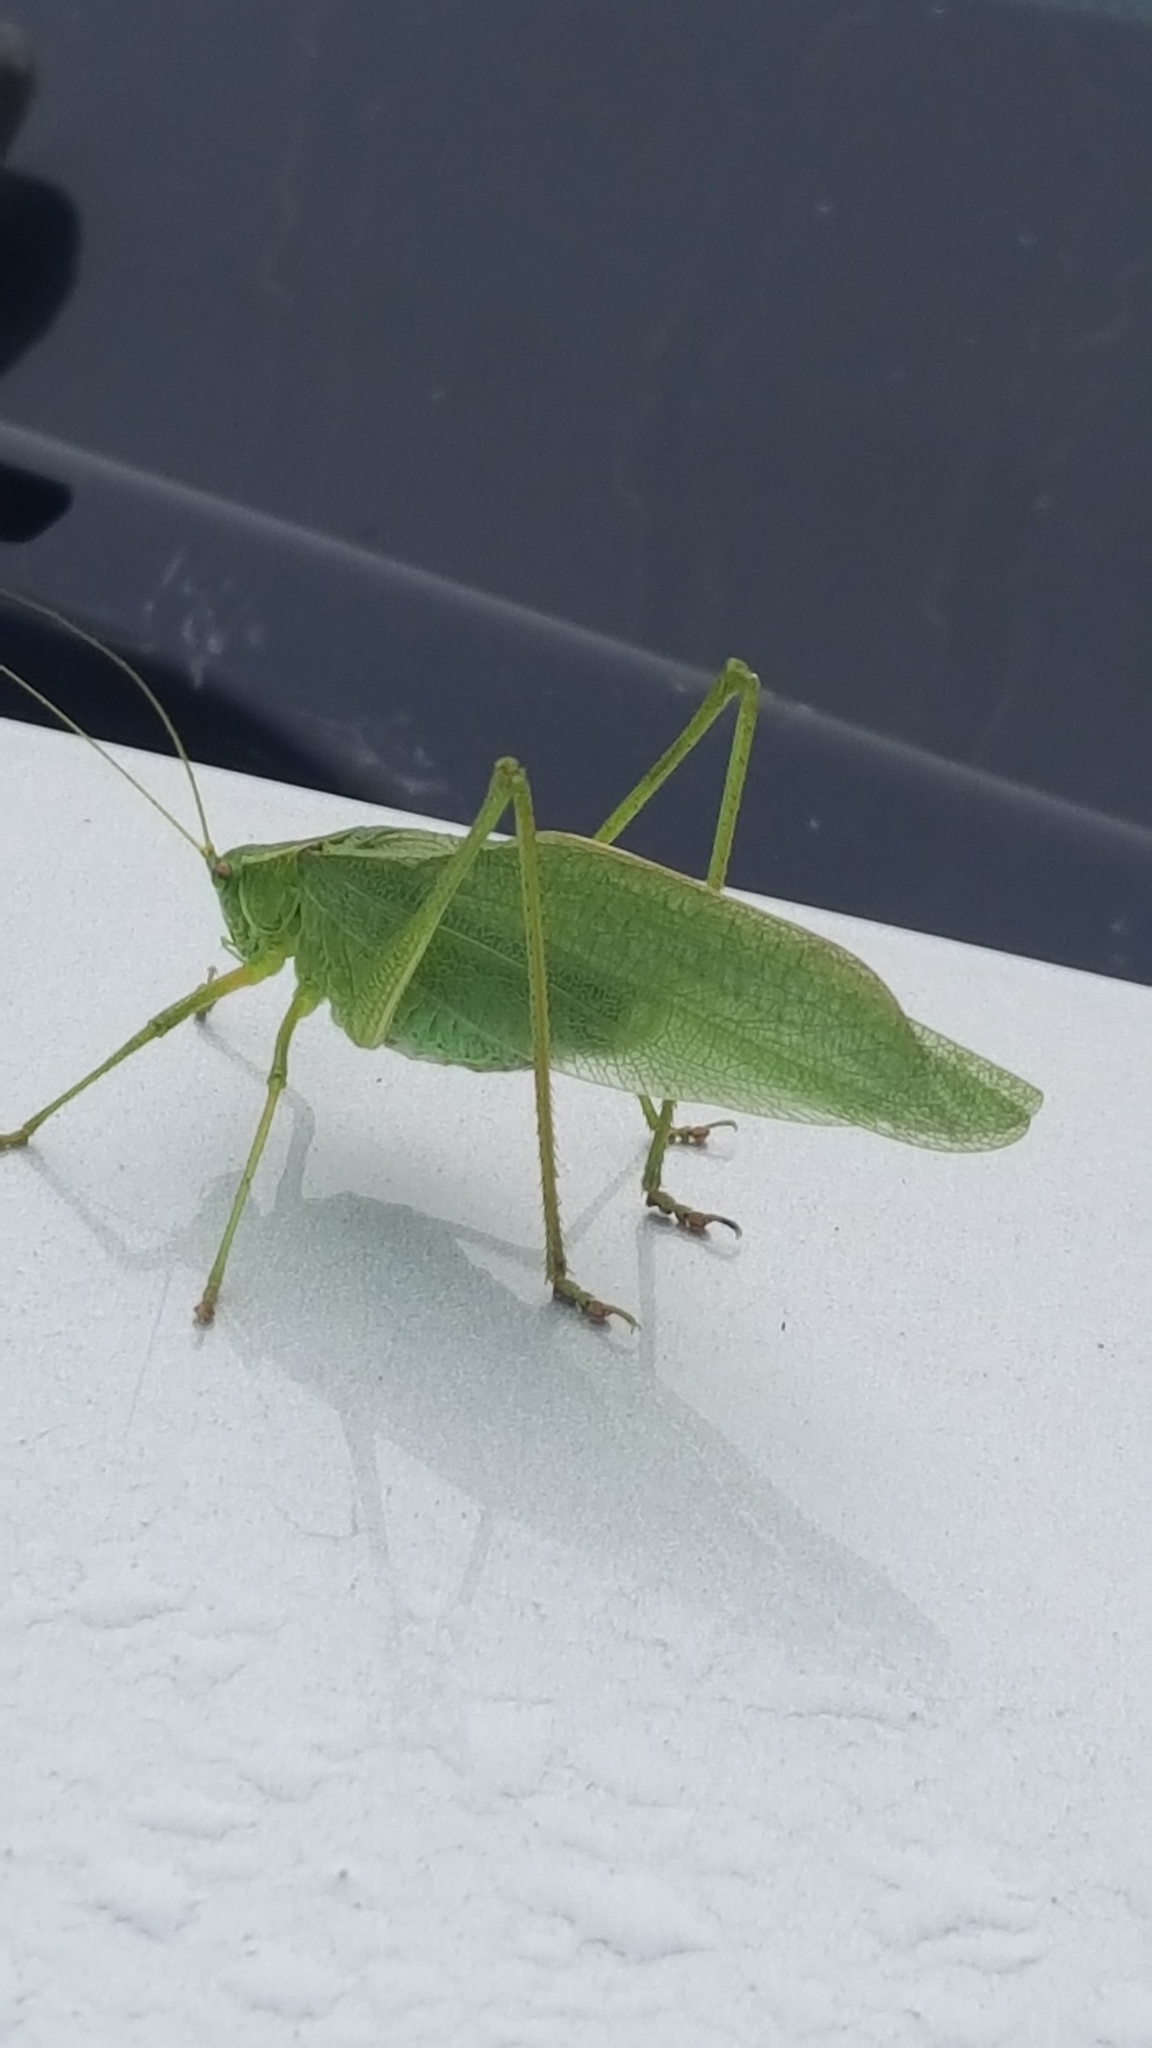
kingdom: Animalia
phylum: Arthropoda
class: Insecta
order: Orthoptera
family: Tettigoniidae
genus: Scudderia
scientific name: Scudderia pistillata
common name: Broad-winged bush-katydid
